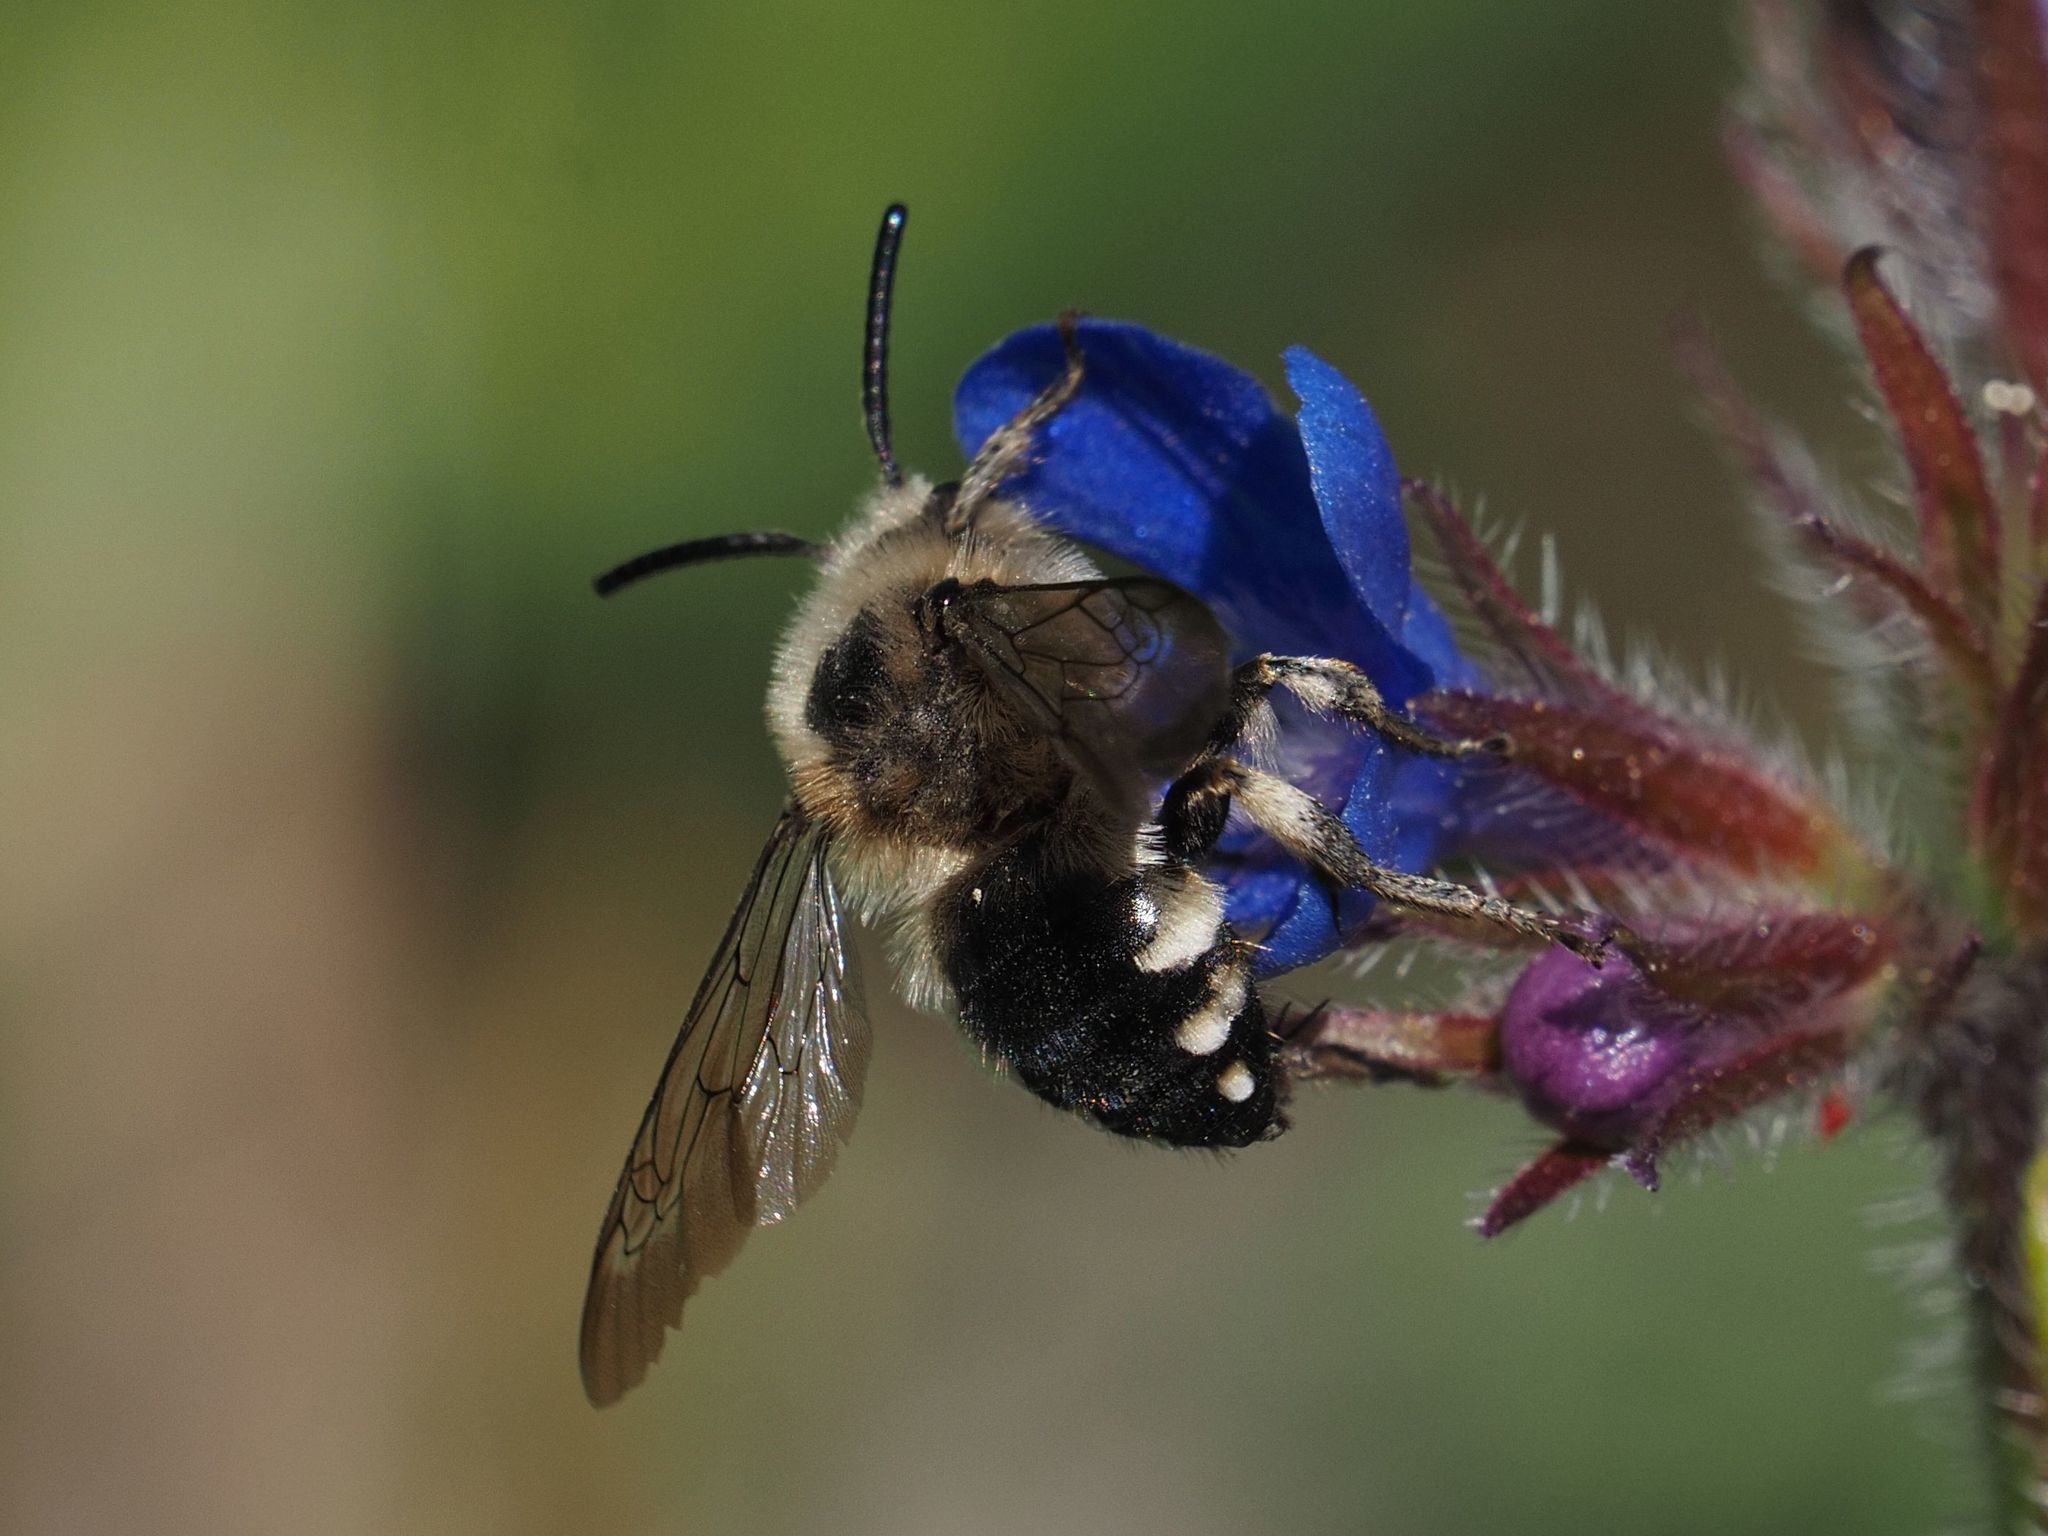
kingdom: Animalia
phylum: Arthropoda
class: Insecta
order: Hymenoptera
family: Apidae
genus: Melecta
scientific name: Melecta albifrons
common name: Common mourning bee
